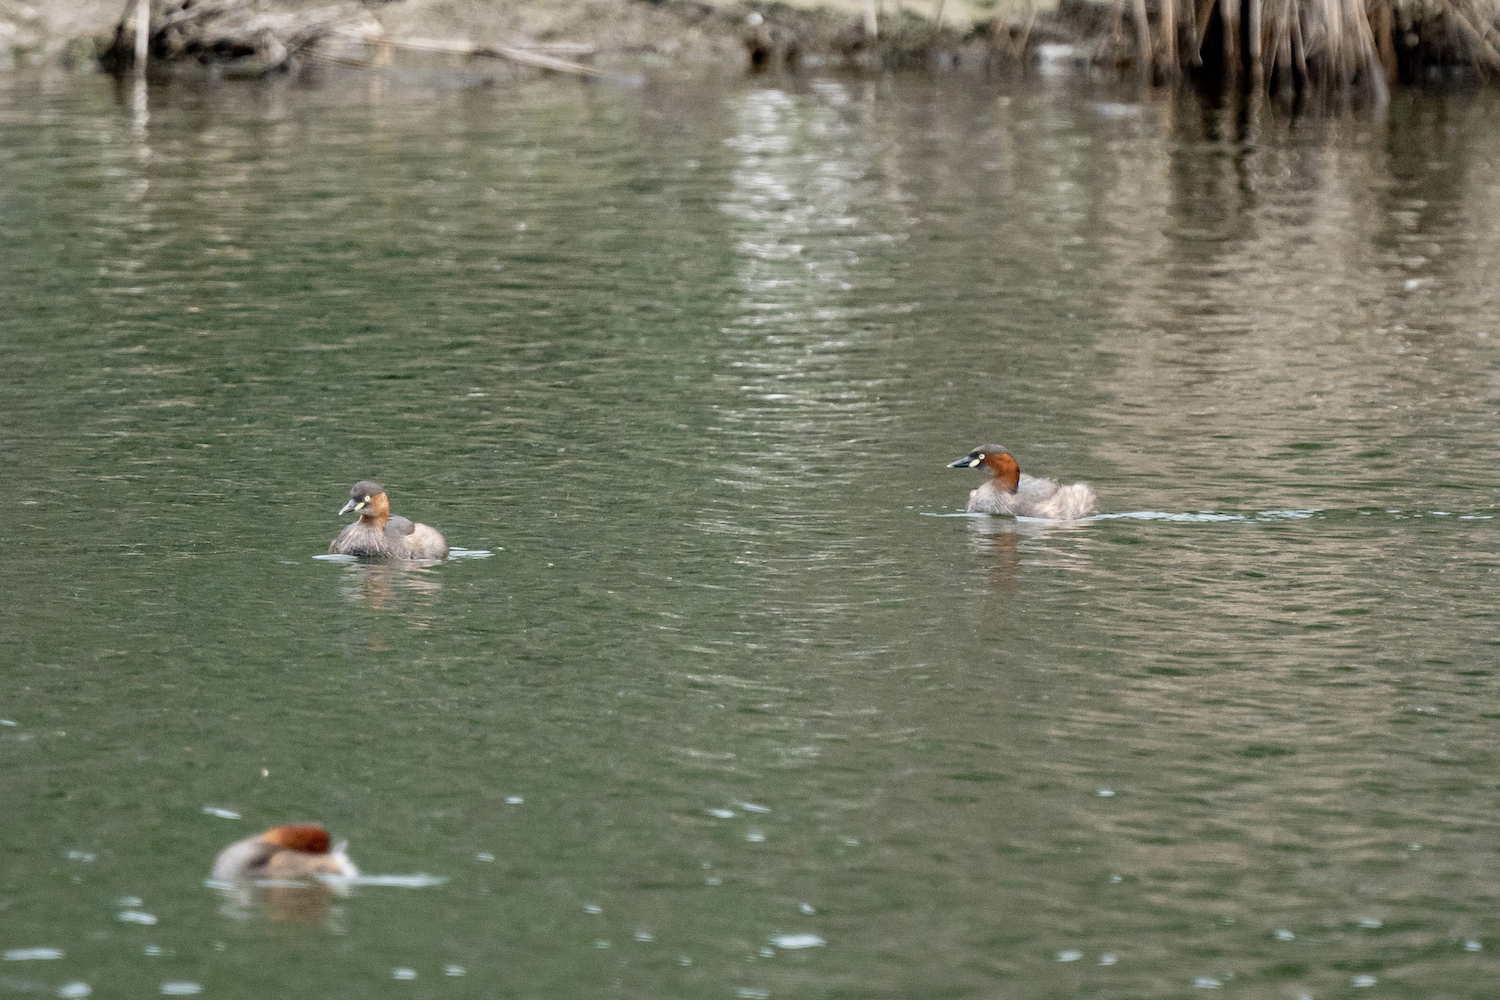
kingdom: Animalia
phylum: Chordata
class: Aves
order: Podicipediformes
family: Podicipedidae
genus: Tachybaptus
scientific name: Tachybaptus ruficollis
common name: Little grebe
